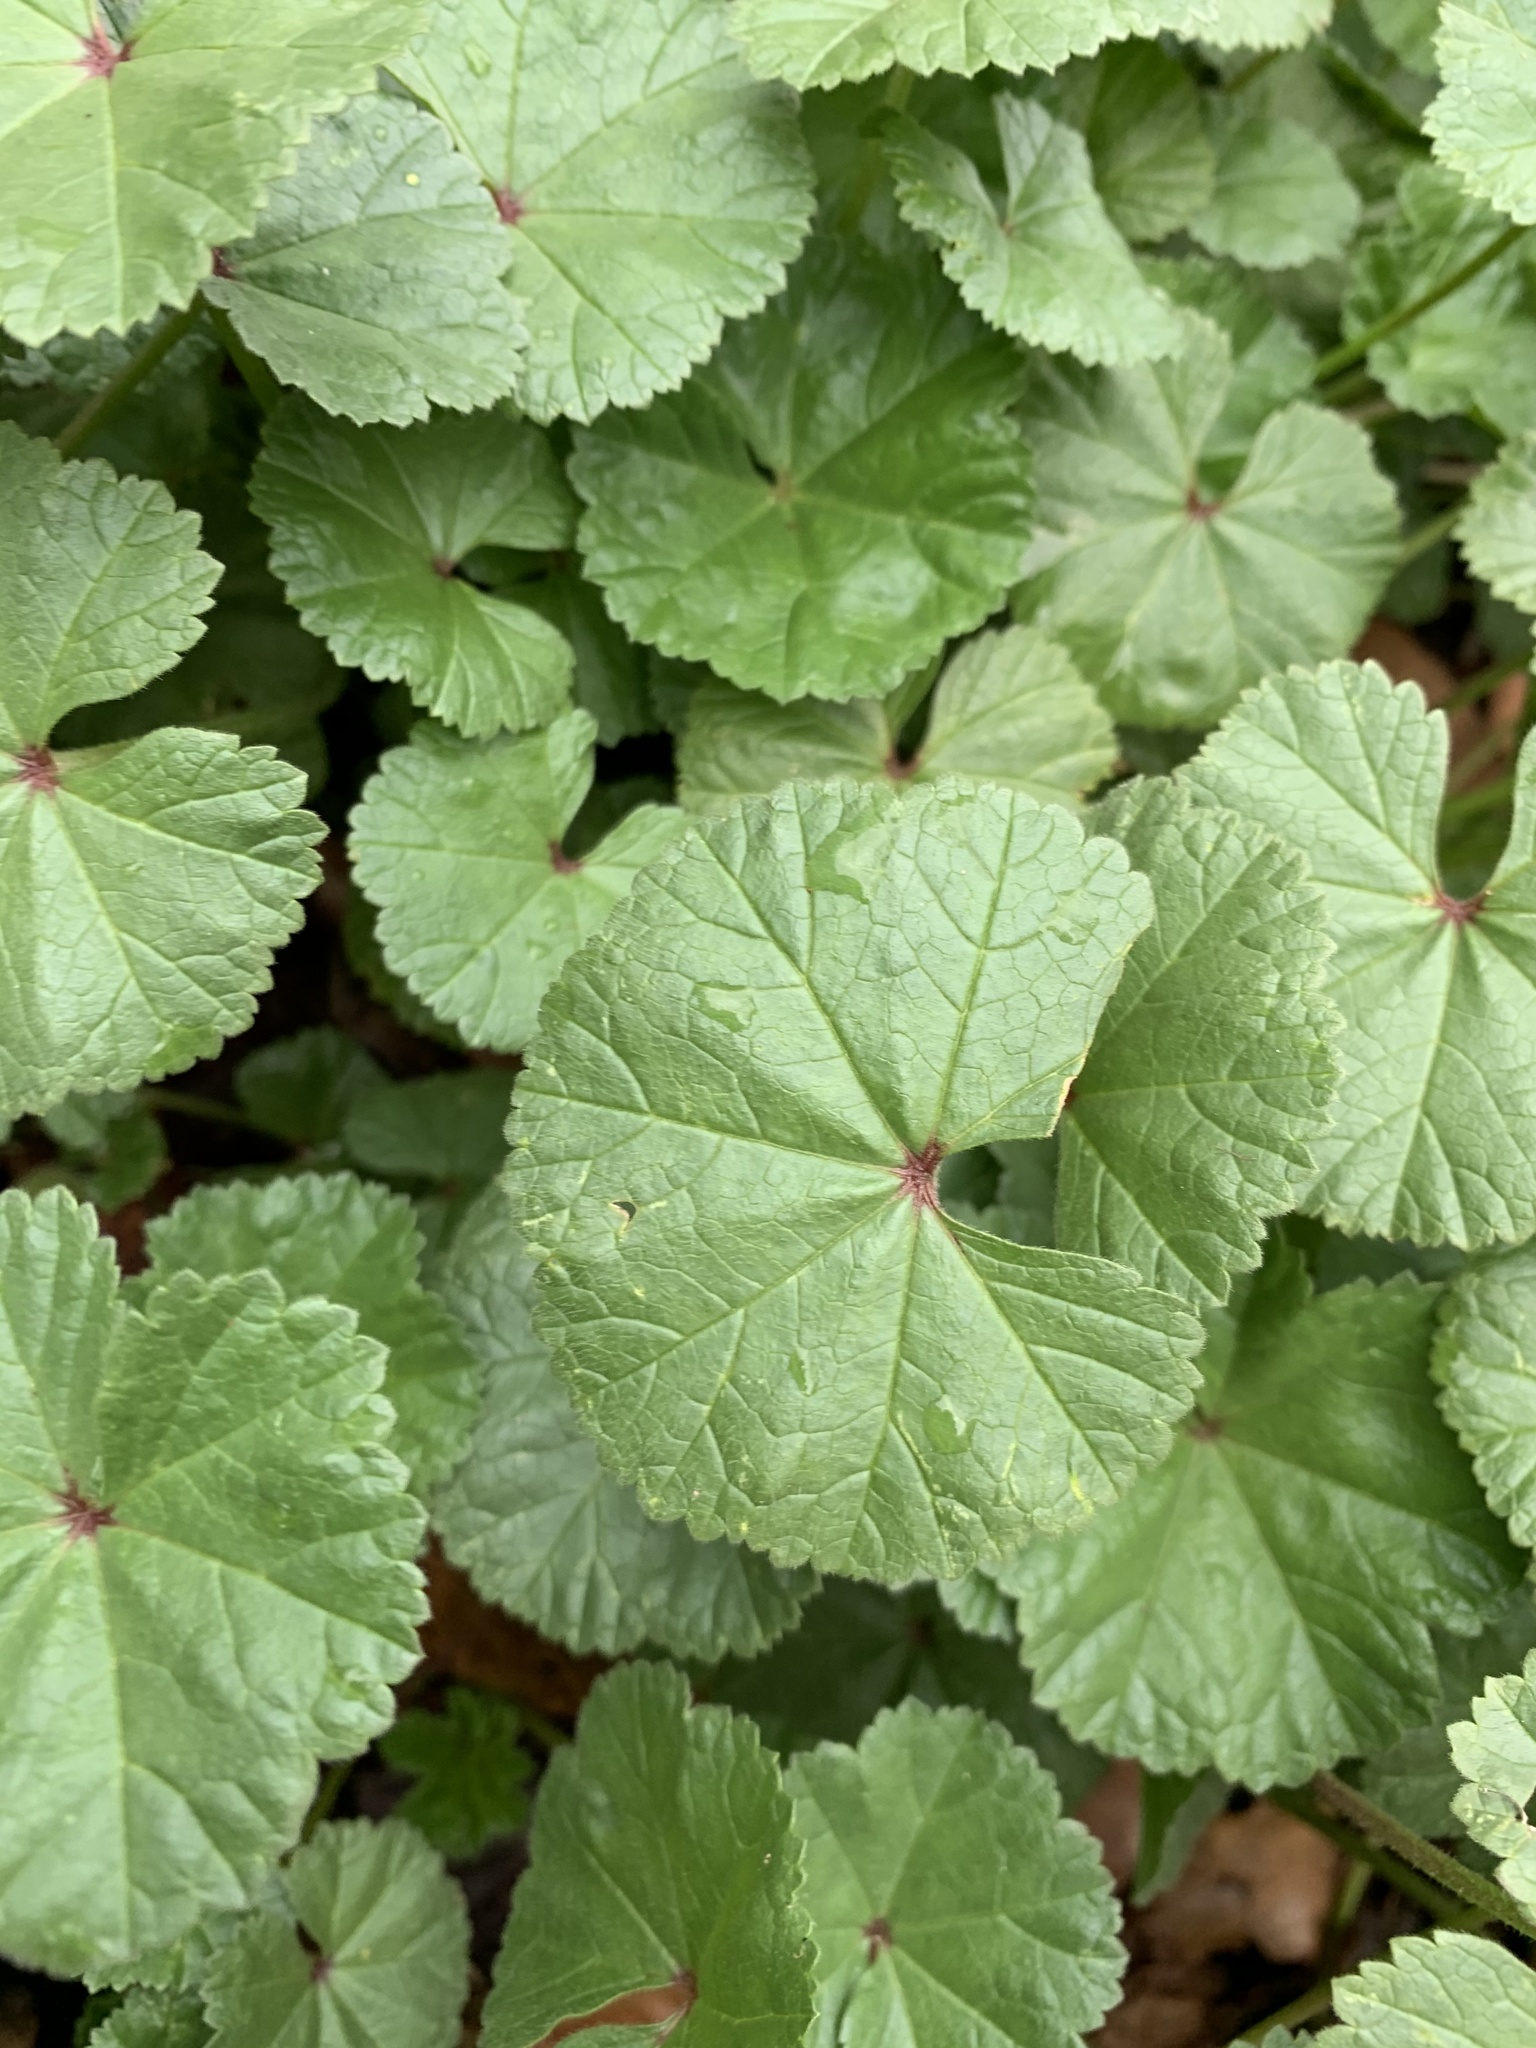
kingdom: Plantae
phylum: Tracheophyta
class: Magnoliopsida
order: Malvales
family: Malvaceae
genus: Malva
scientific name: Malva neglecta
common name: Common mallow
